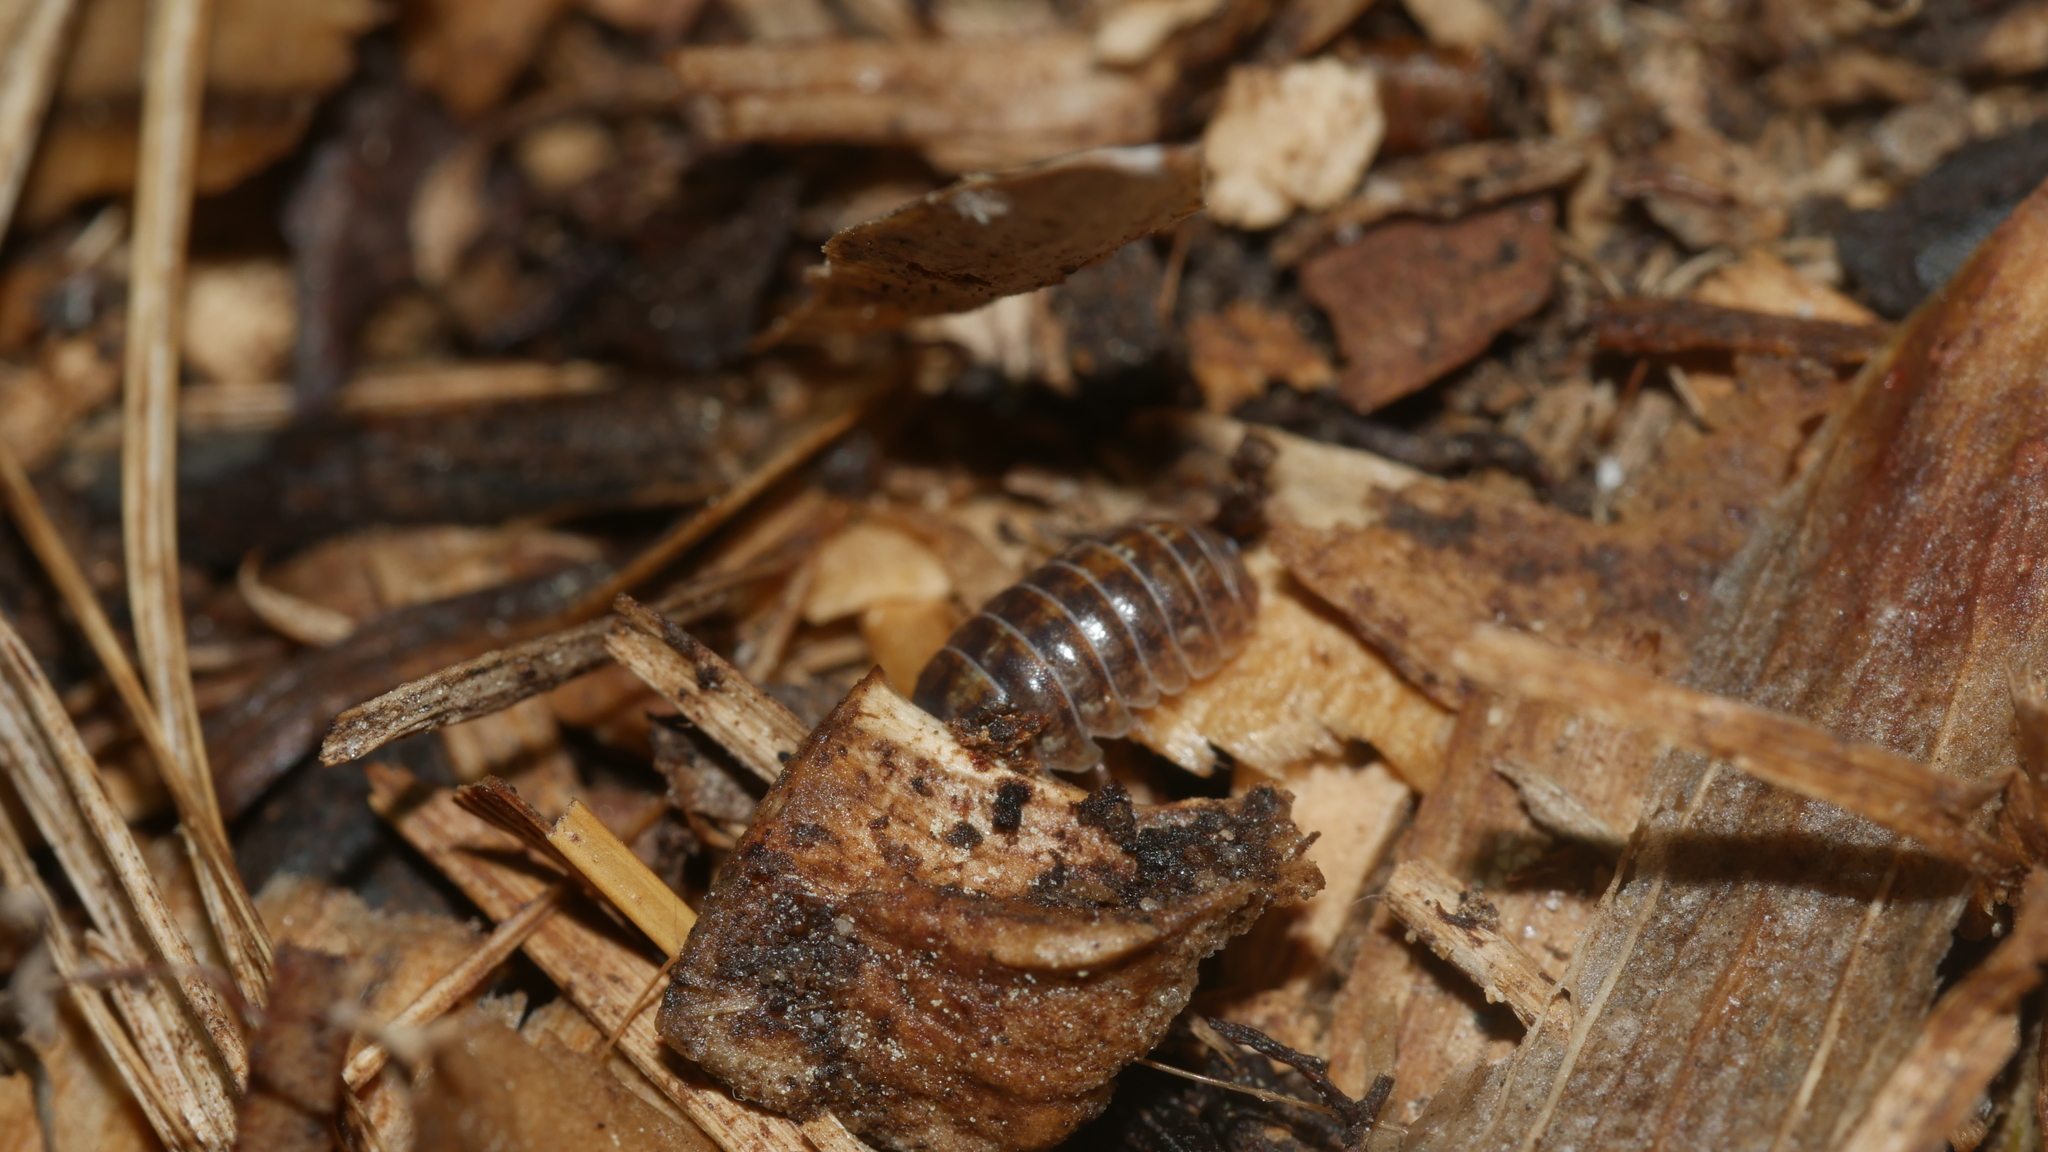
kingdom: Animalia
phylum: Arthropoda
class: Malacostraca
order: Isopoda
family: Armadillidiidae
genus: Armadillidium
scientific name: Armadillidium vulgare
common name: Common pill woodlouse
